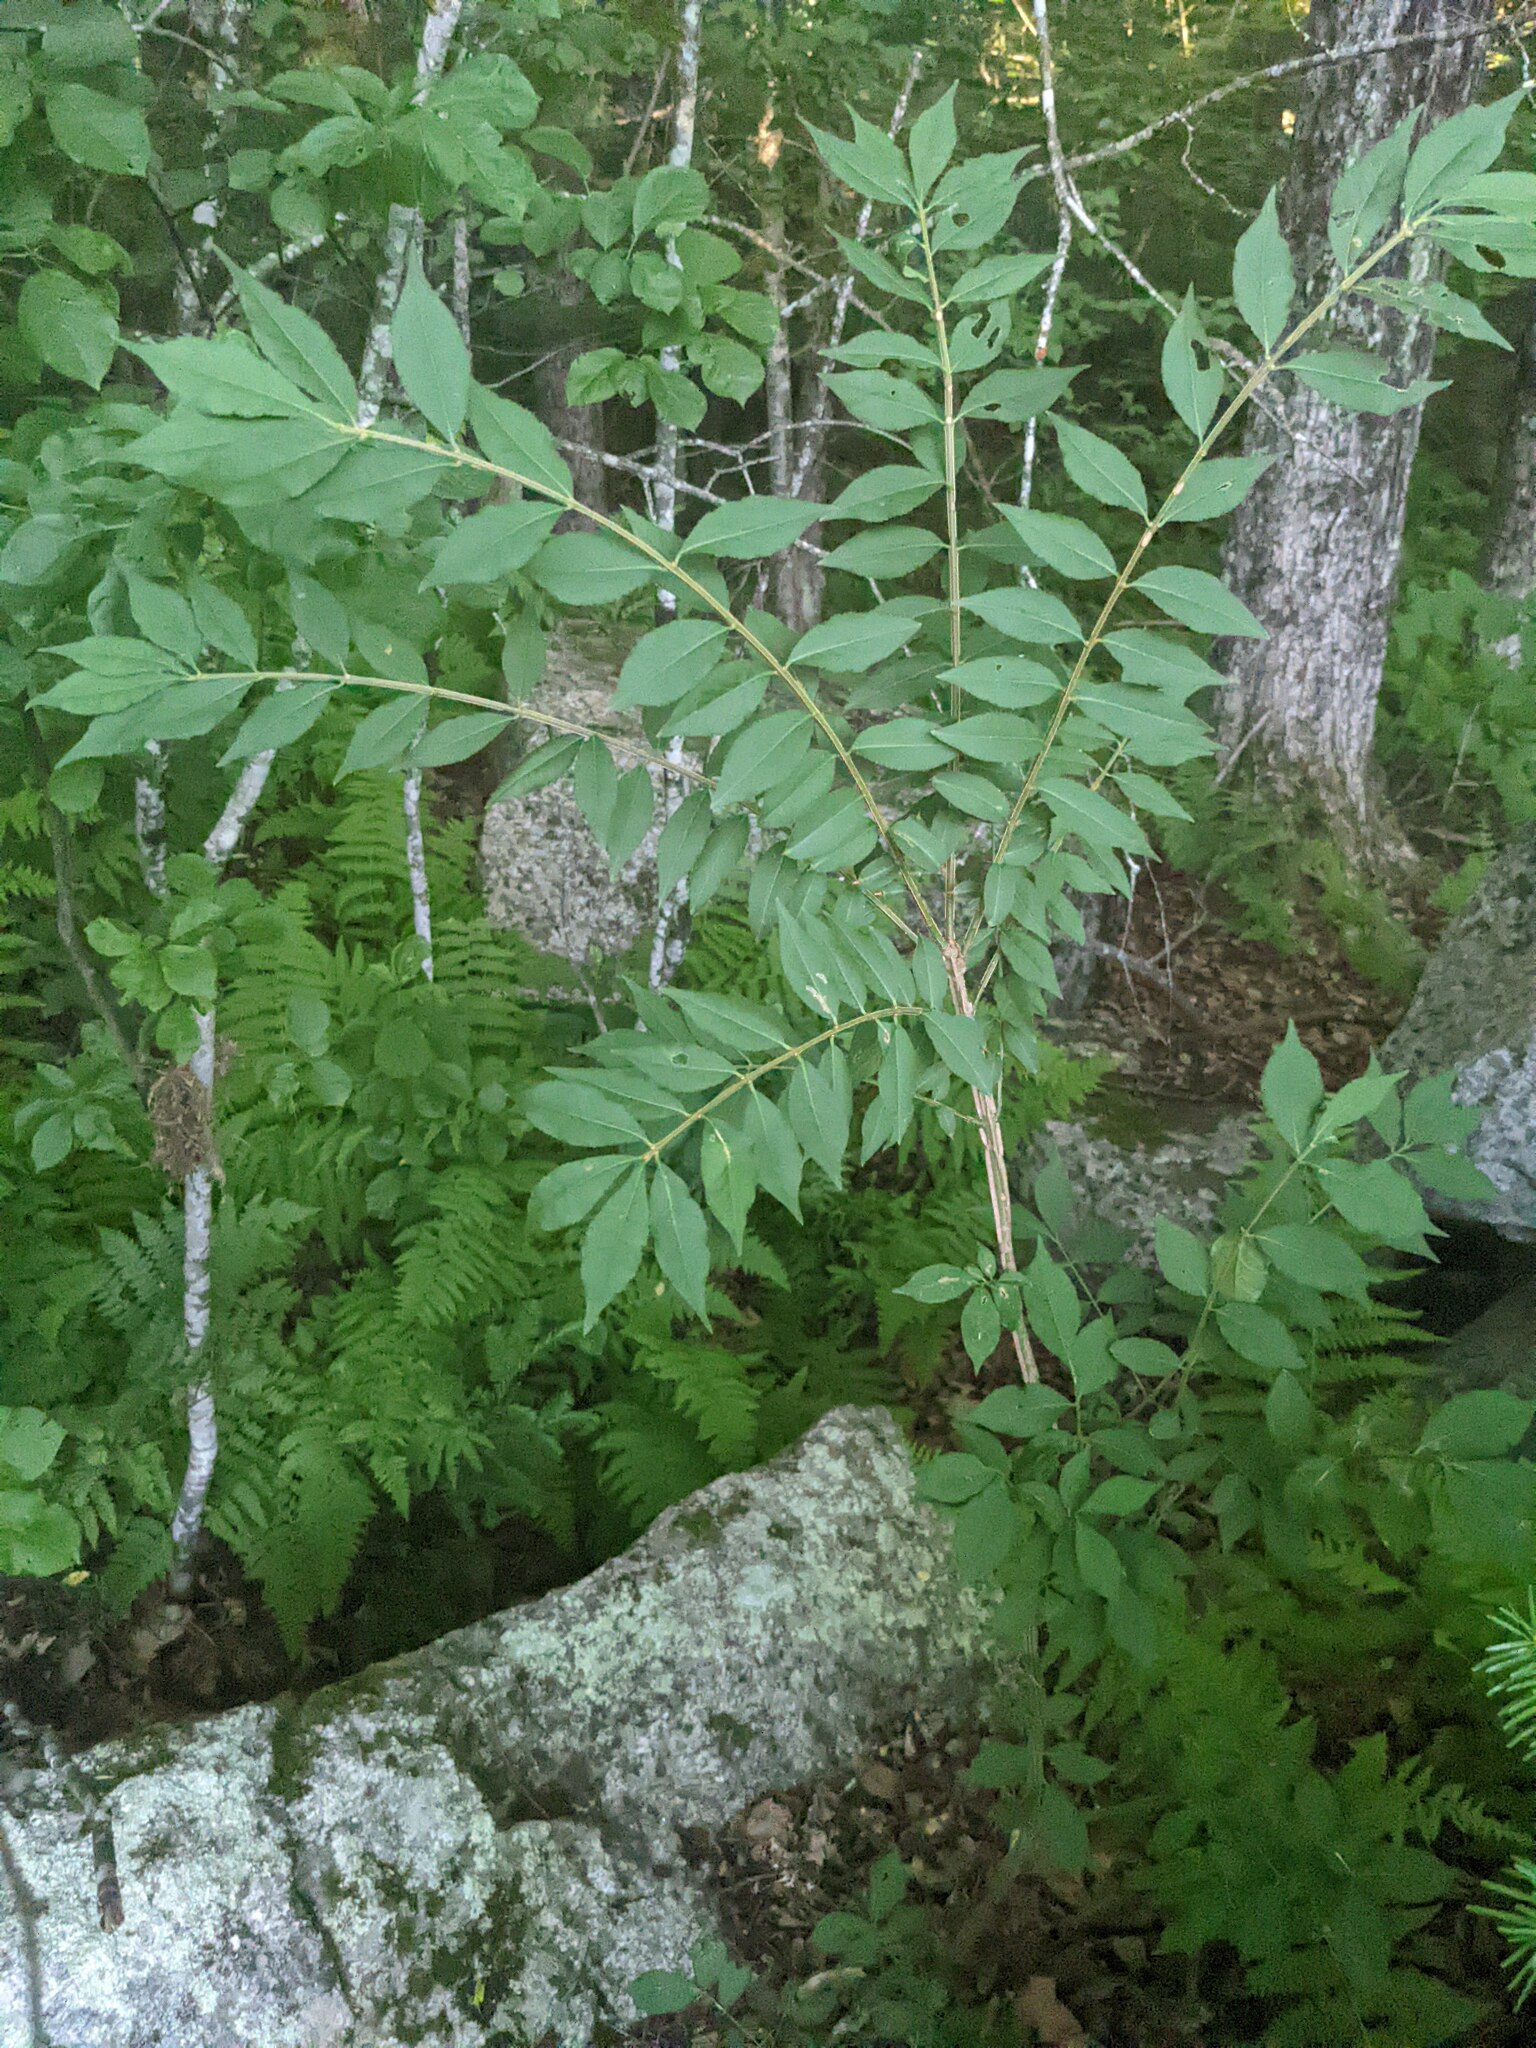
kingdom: Plantae
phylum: Tracheophyta
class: Magnoliopsida
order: Celastrales
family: Celastraceae
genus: Euonymus
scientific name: Euonymus alatus
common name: Winged euonymus
